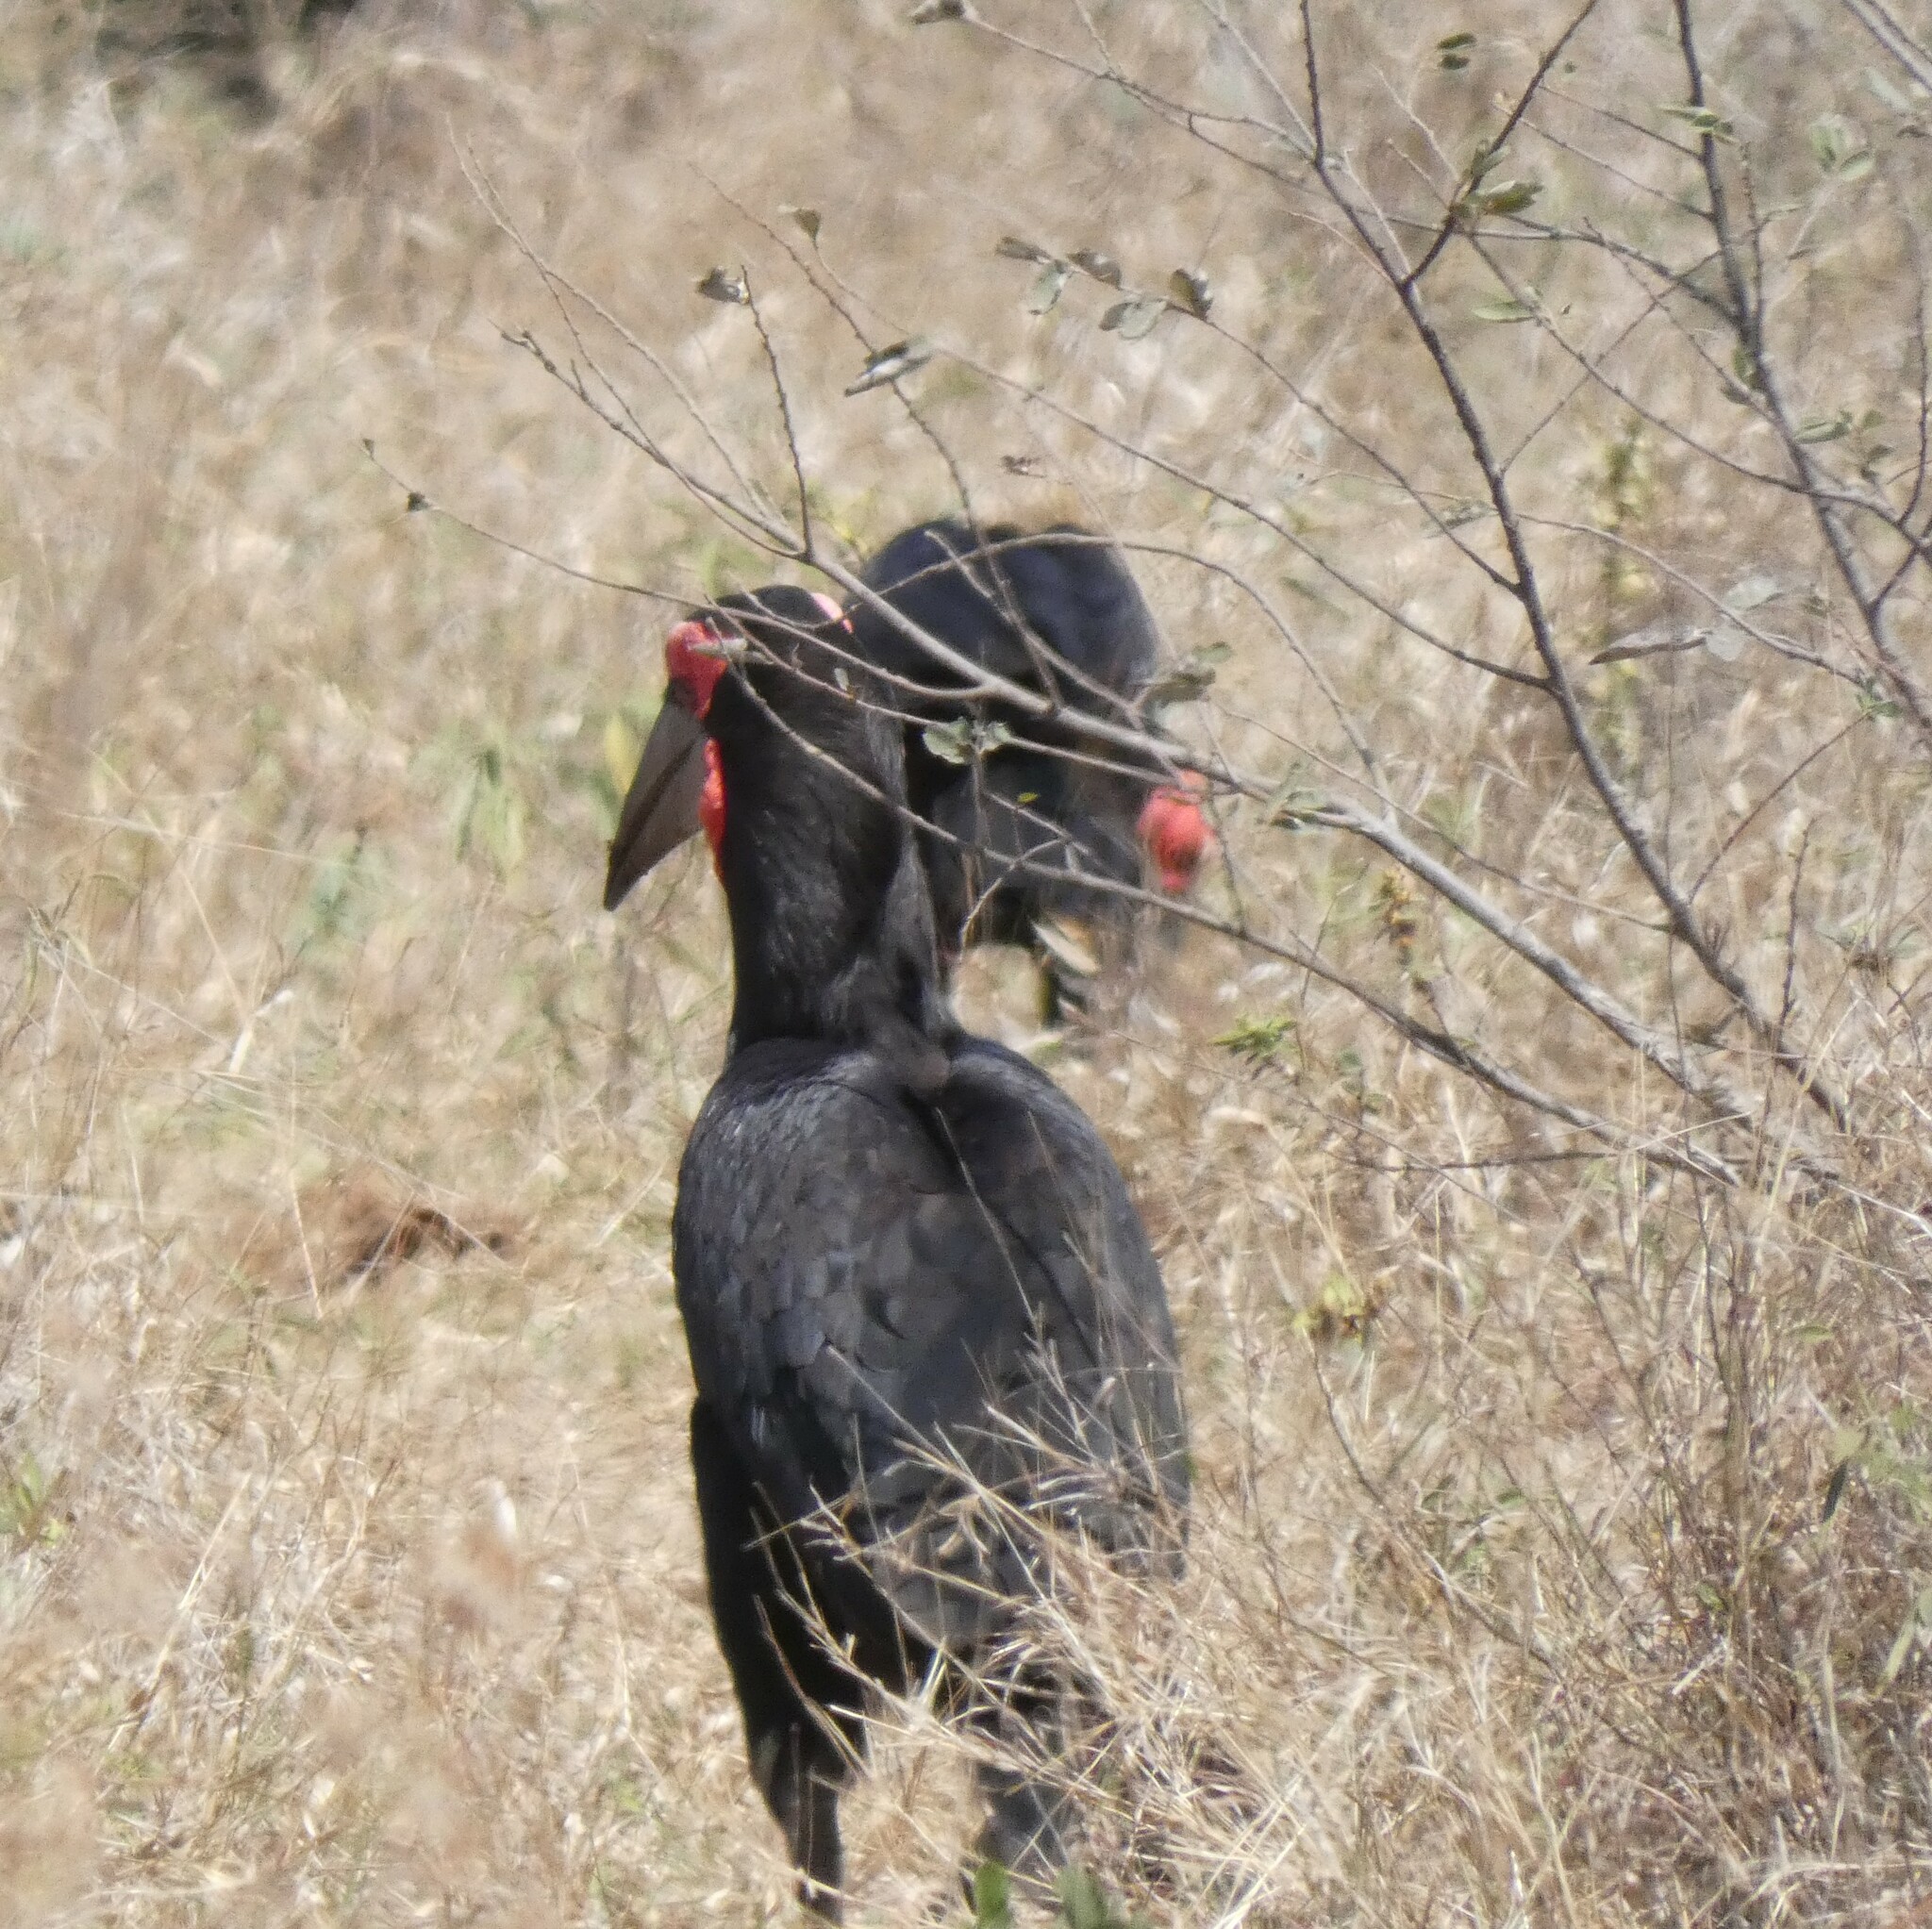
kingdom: Animalia
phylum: Chordata
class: Aves
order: Bucerotiformes
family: Bucorvidae
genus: Bucorvus
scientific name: Bucorvus leadbeateri
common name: Southern ground-hornbill
